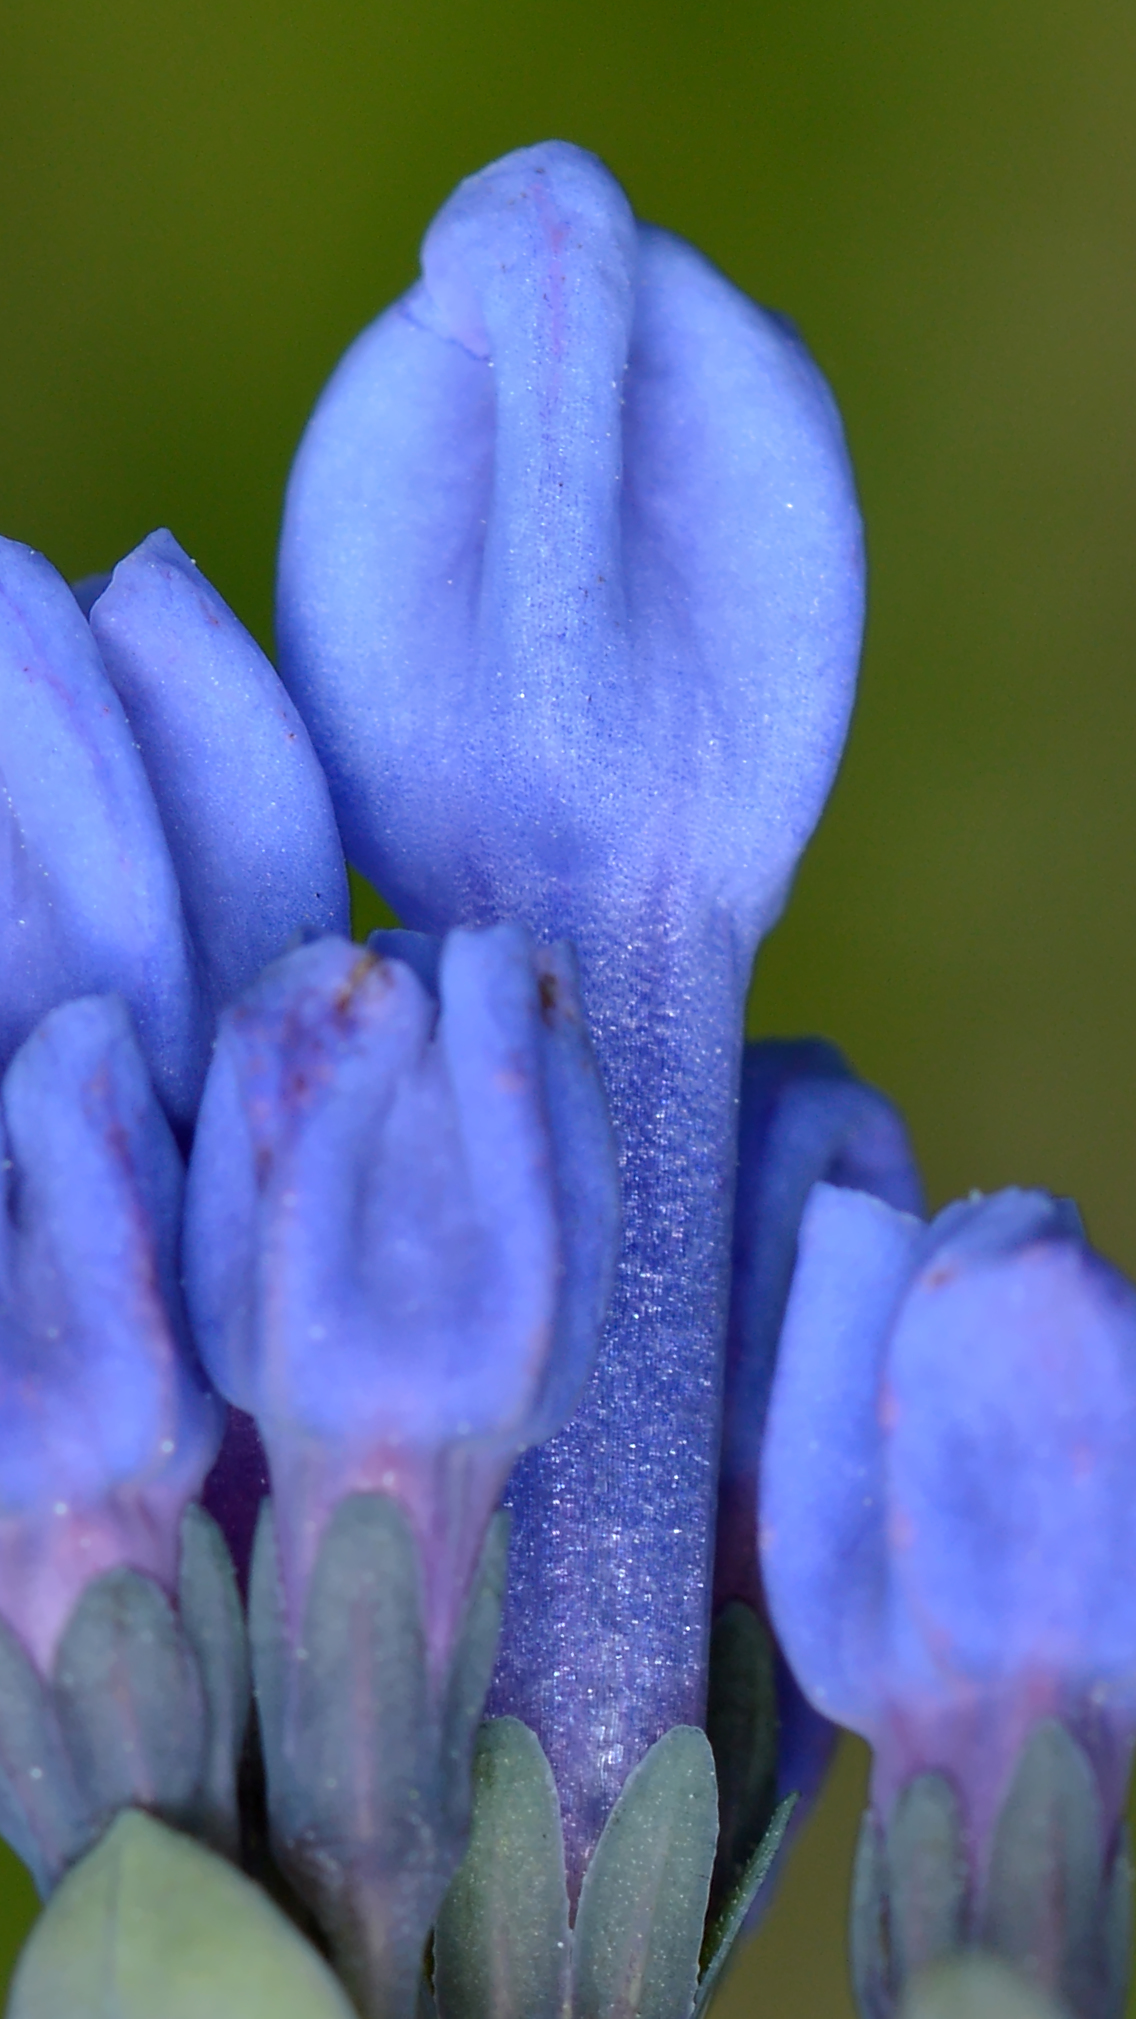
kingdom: Plantae
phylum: Tracheophyta
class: Magnoliopsida
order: Boraginales
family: Boraginaceae
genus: Mertensia
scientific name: Mertensia virginica
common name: Virginia bluebells
